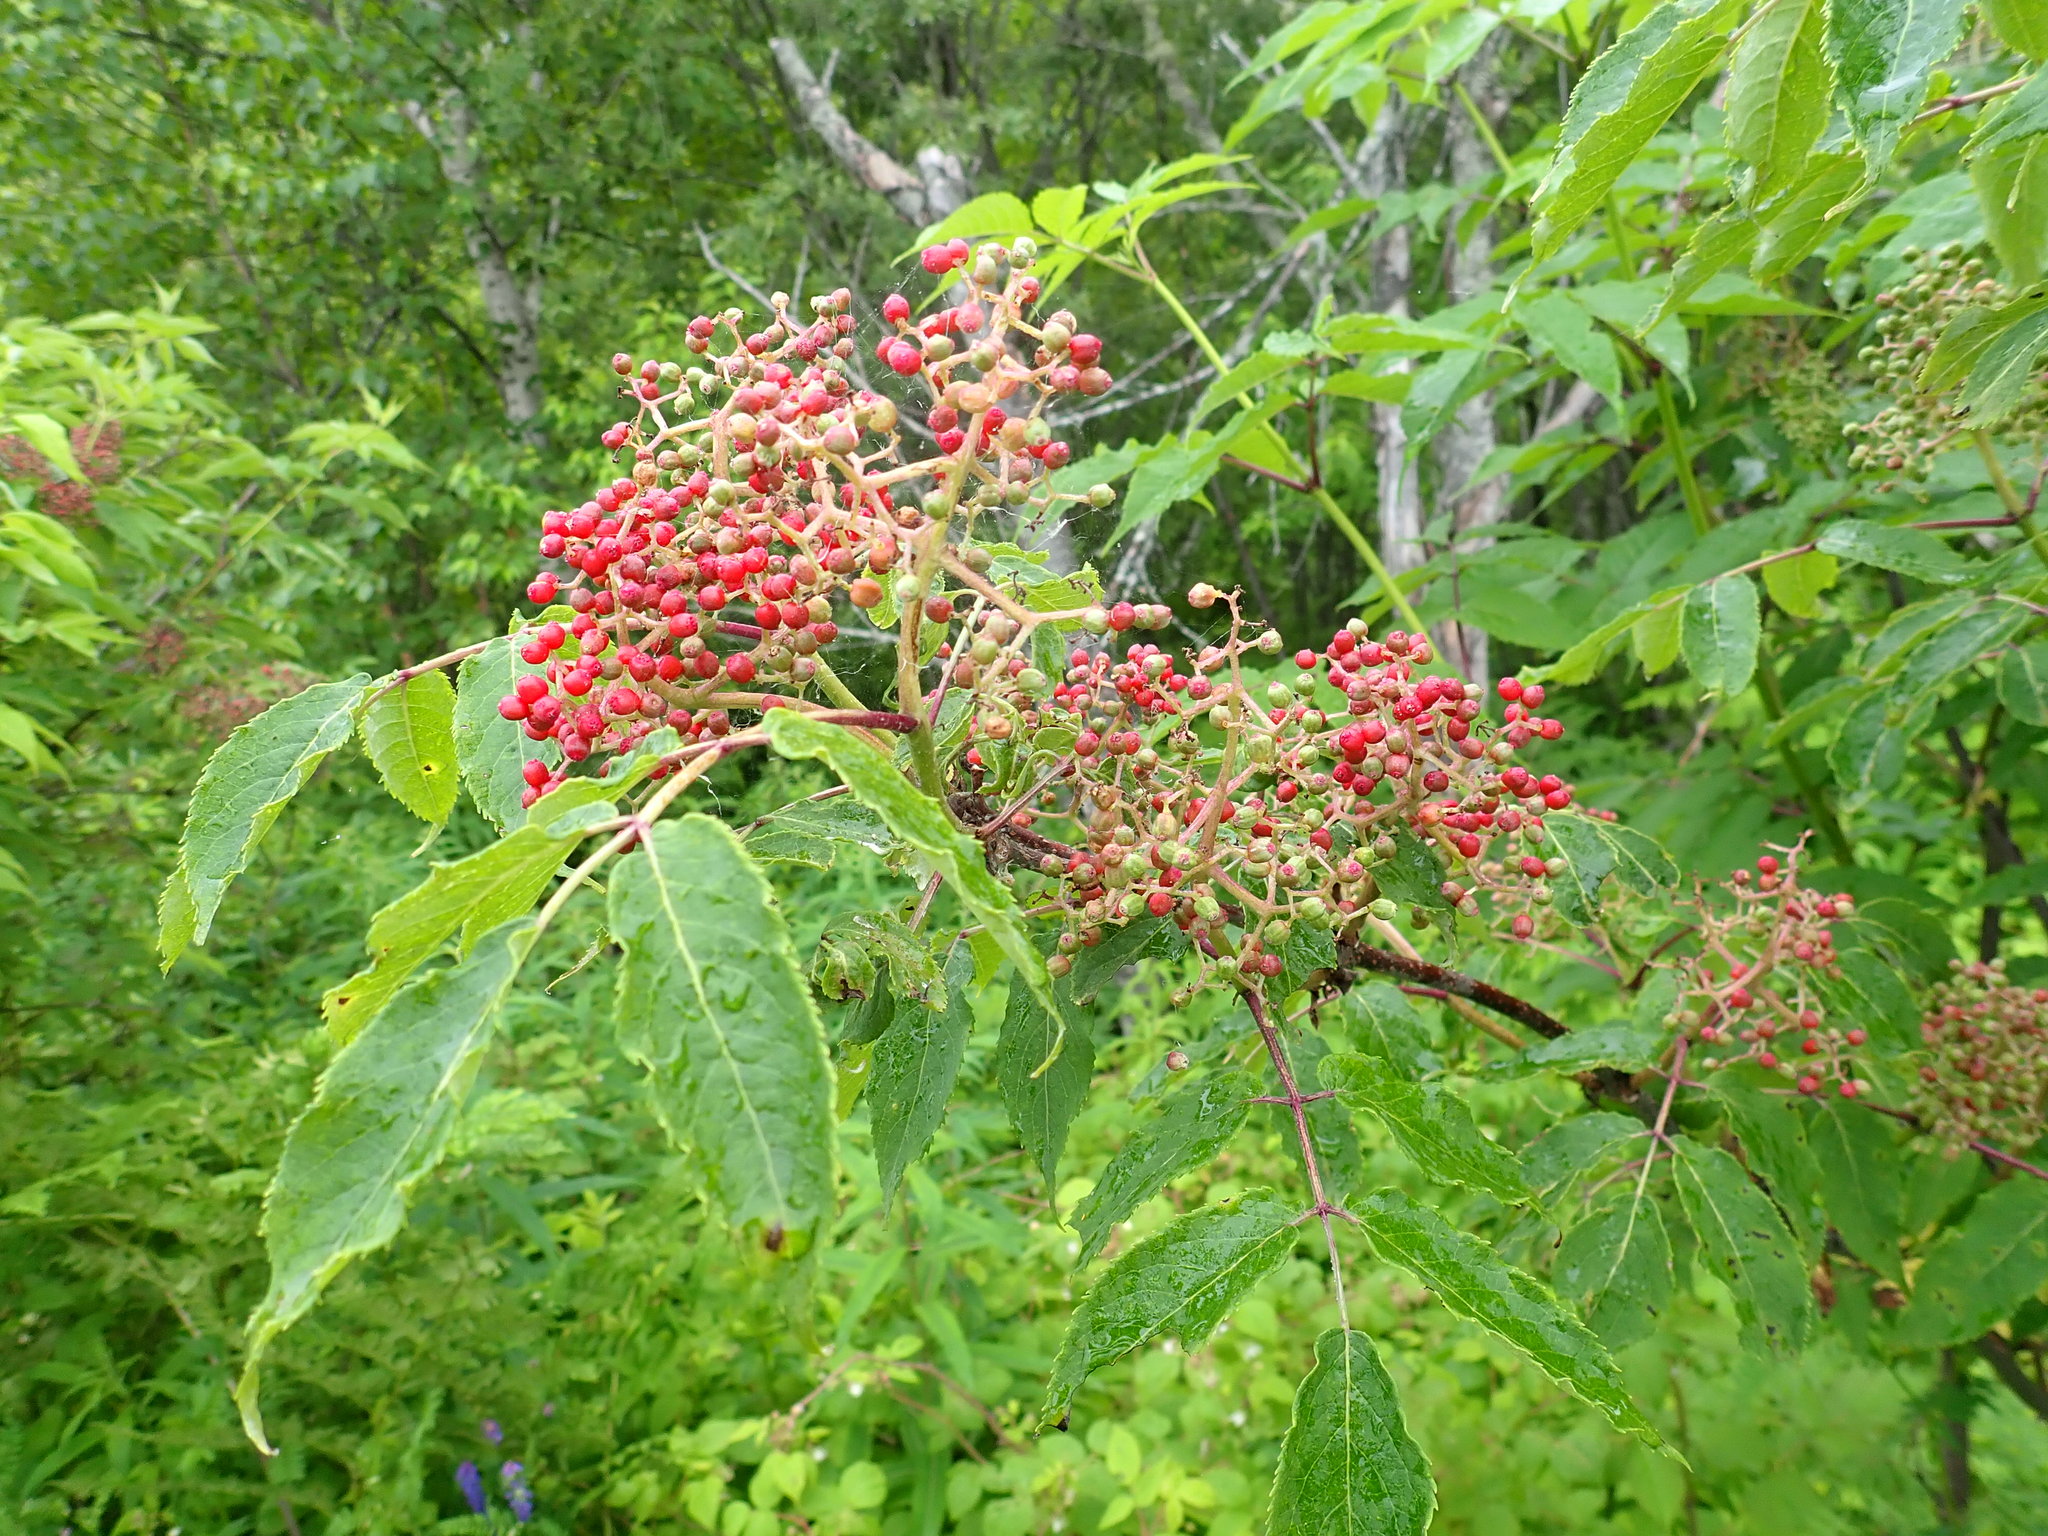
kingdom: Plantae
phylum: Tracheophyta
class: Magnoliopsida
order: Dipsacales
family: Viburnaceae
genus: Sambucus
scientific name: Sambucus racemosa
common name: Red-berried elder
